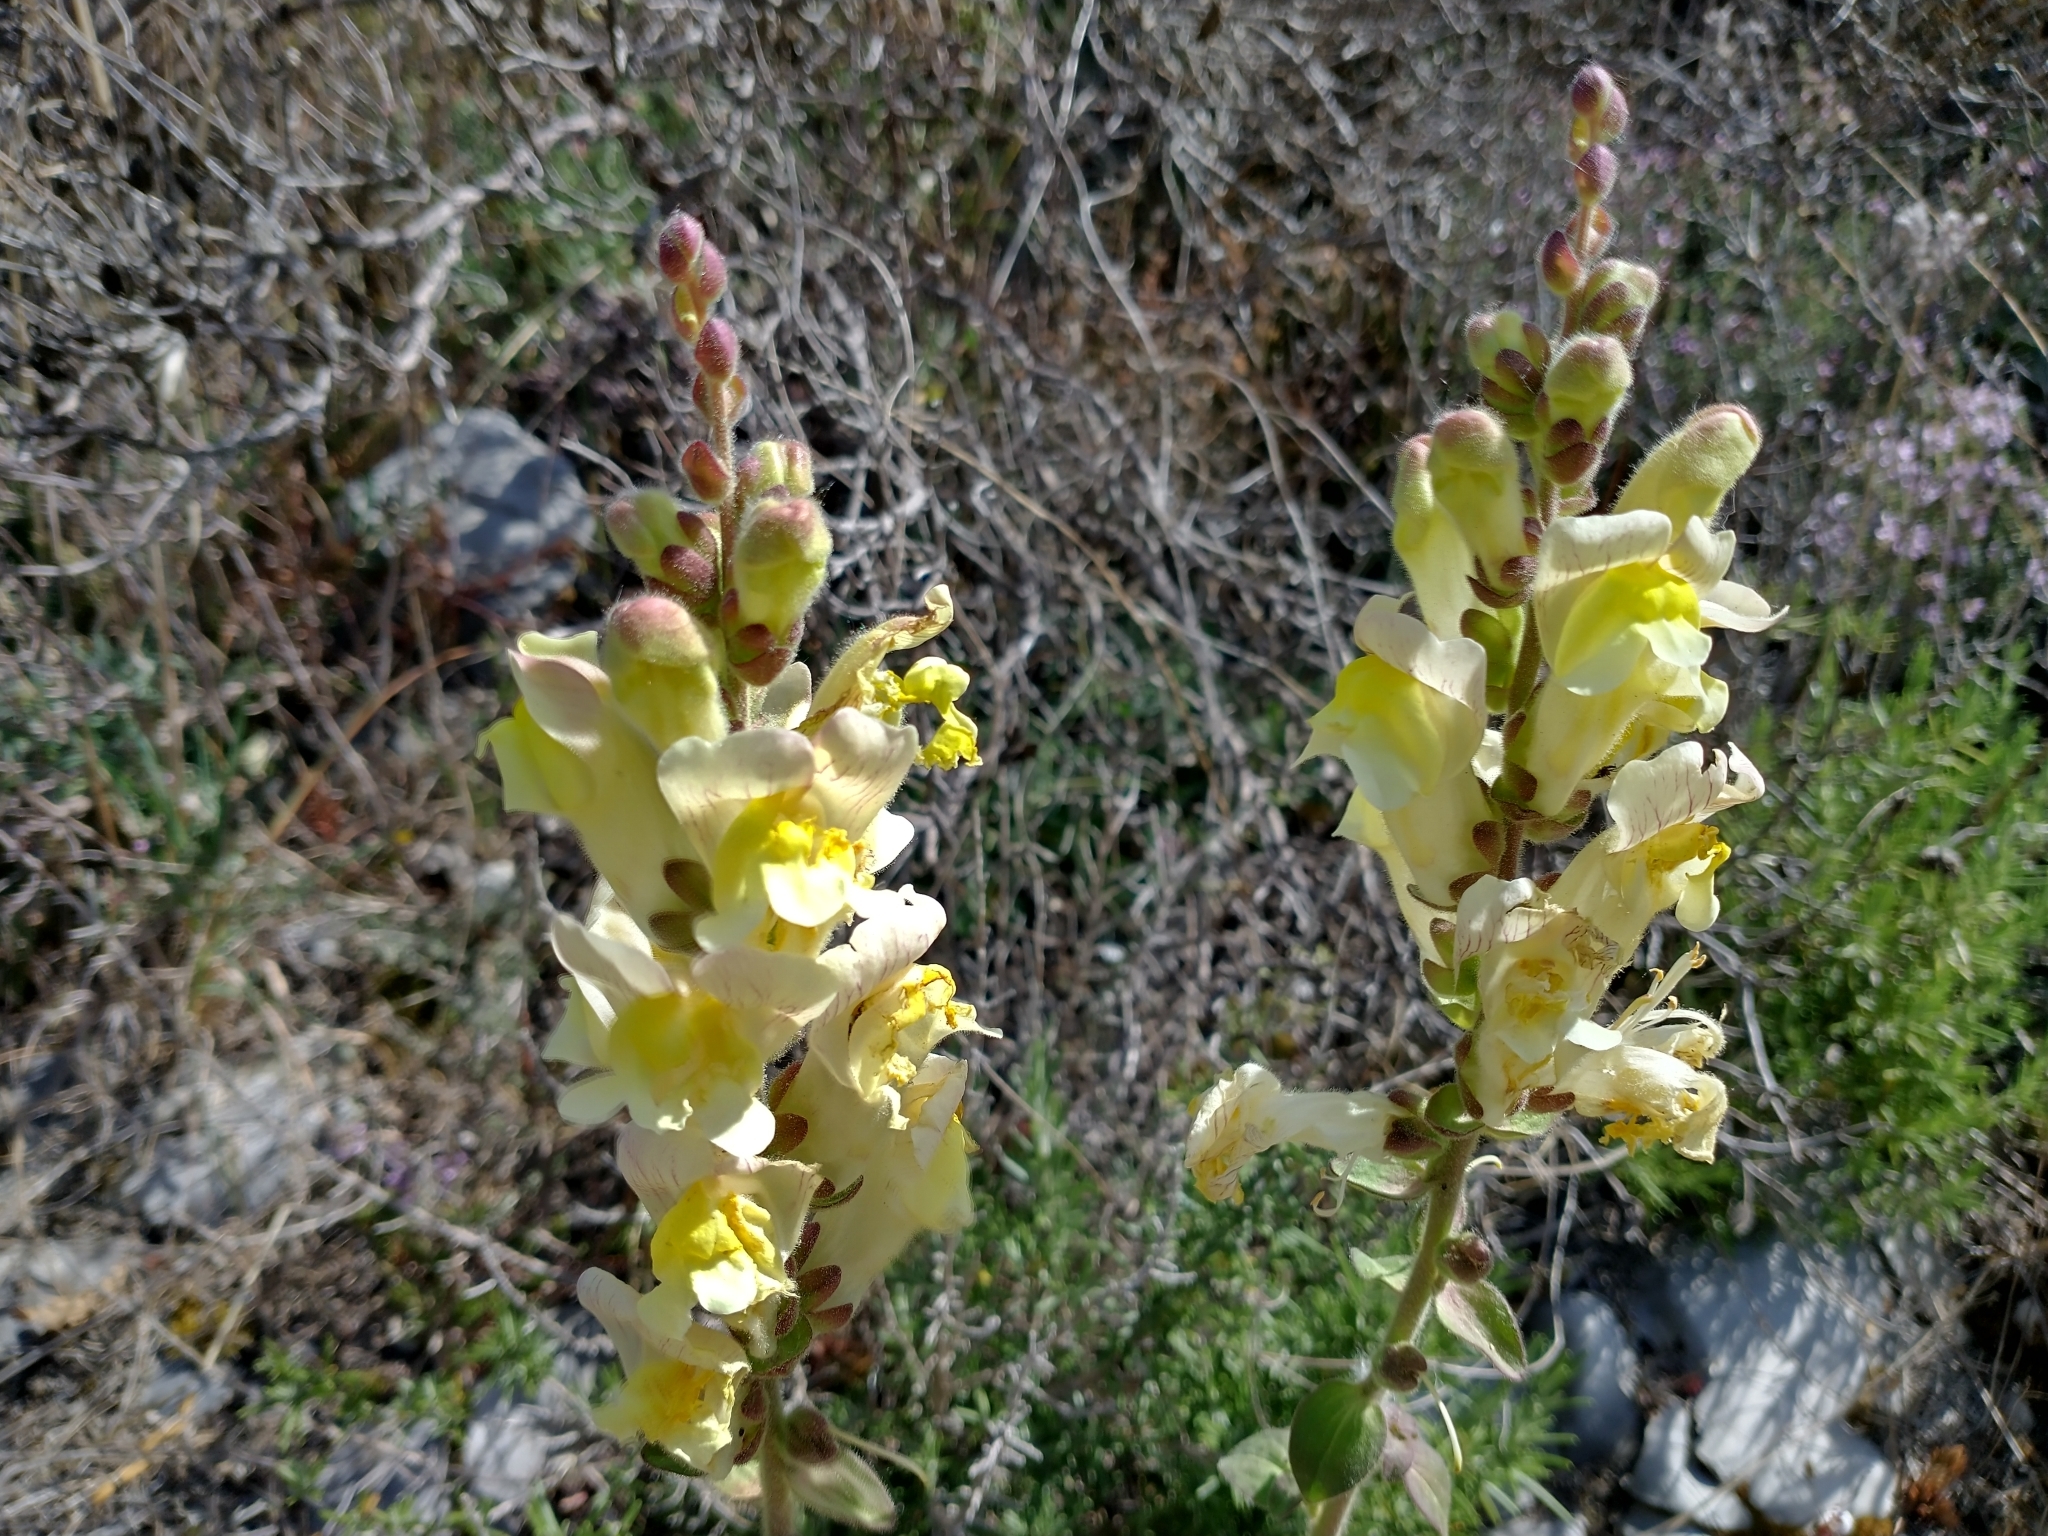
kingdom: Plantae
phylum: Tracheophyta
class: Magnoliopsida
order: Lamiales
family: Plantaginaceae
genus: Antirrhinum
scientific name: Antirrhinum latifolium
